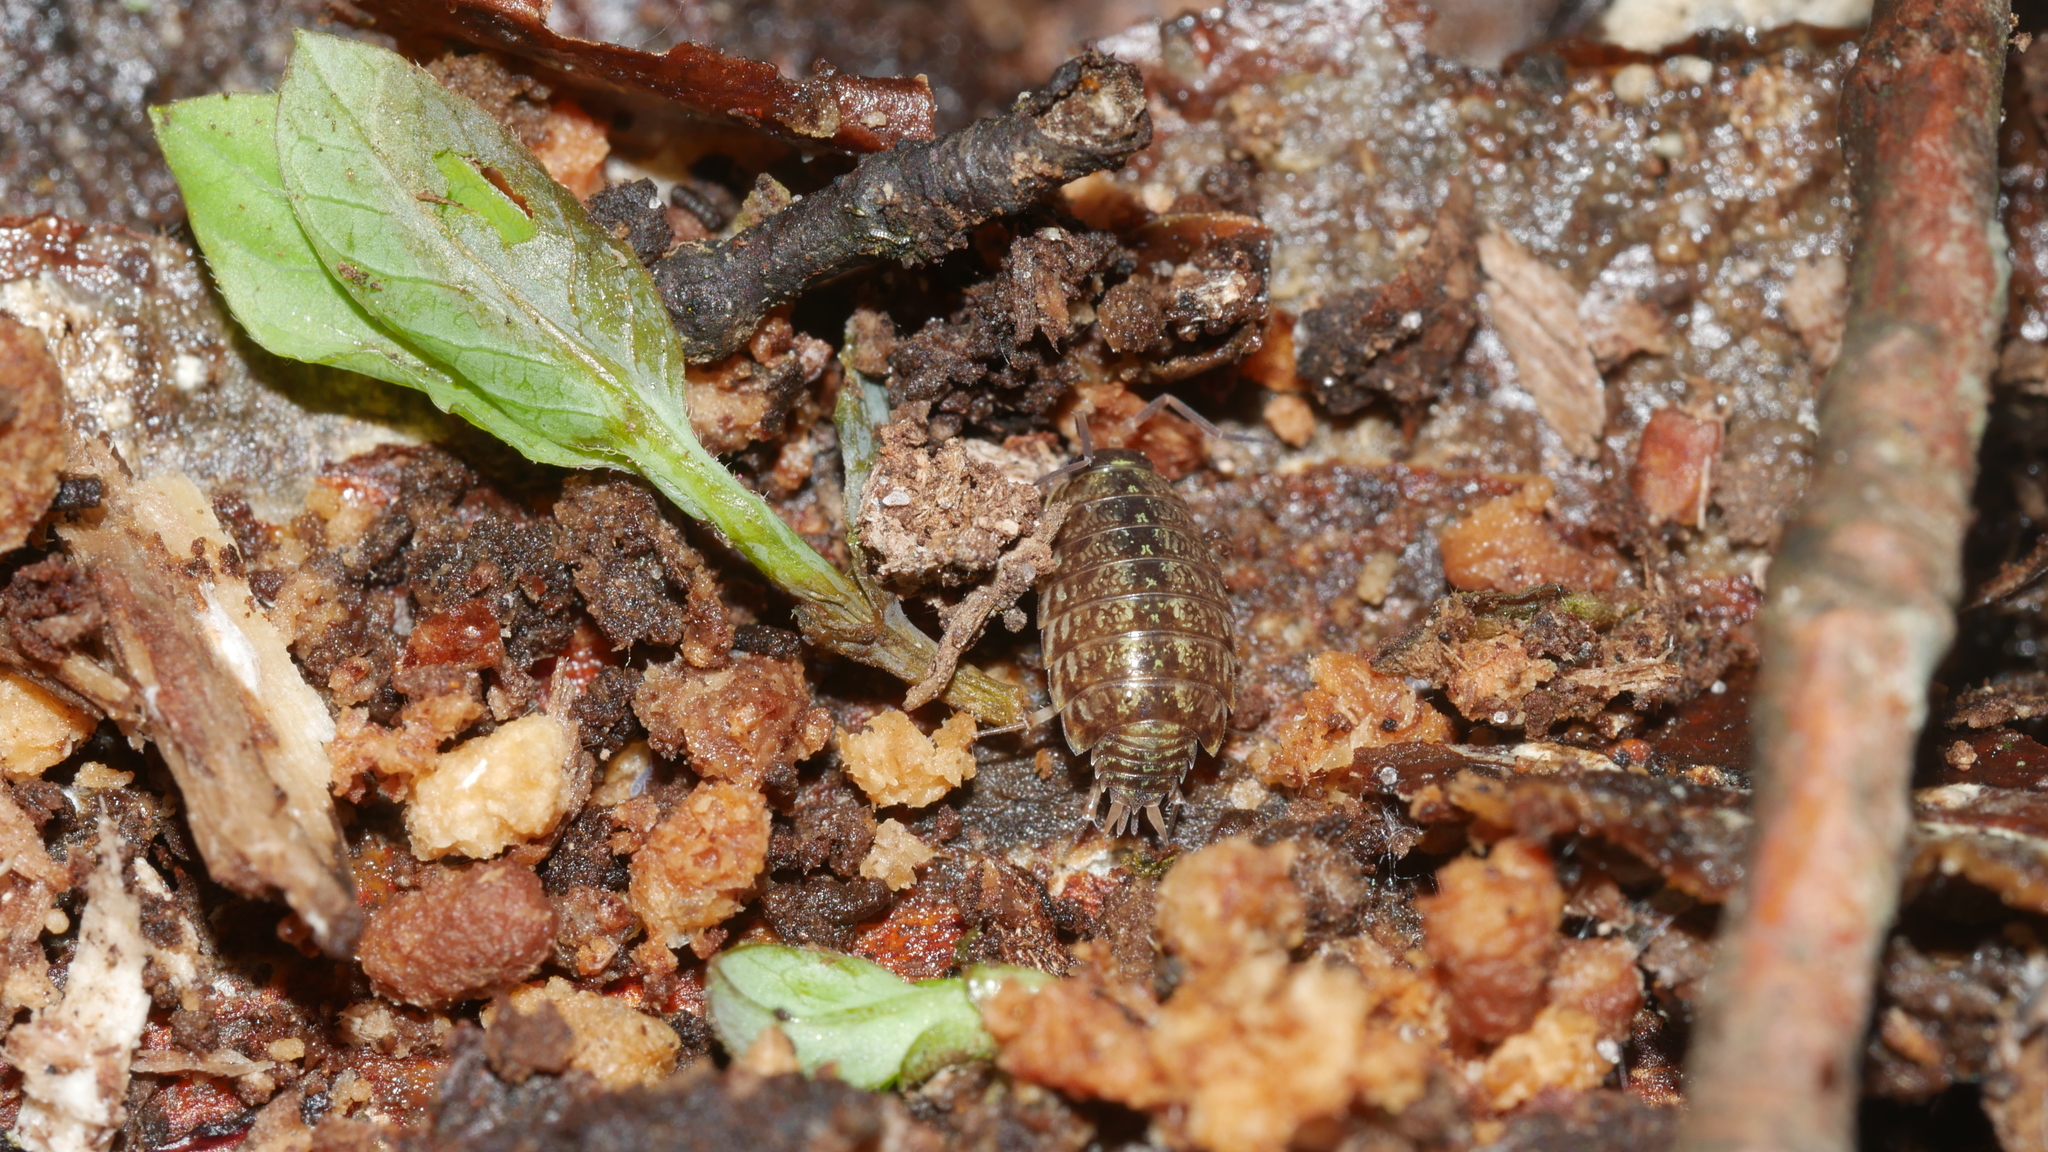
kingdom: Animalia
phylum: Arthropoda
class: Malacostraca
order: Isopoda
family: Philosciidae
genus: Philoscia
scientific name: Philoscia muscorum
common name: Common striped woodlouse
